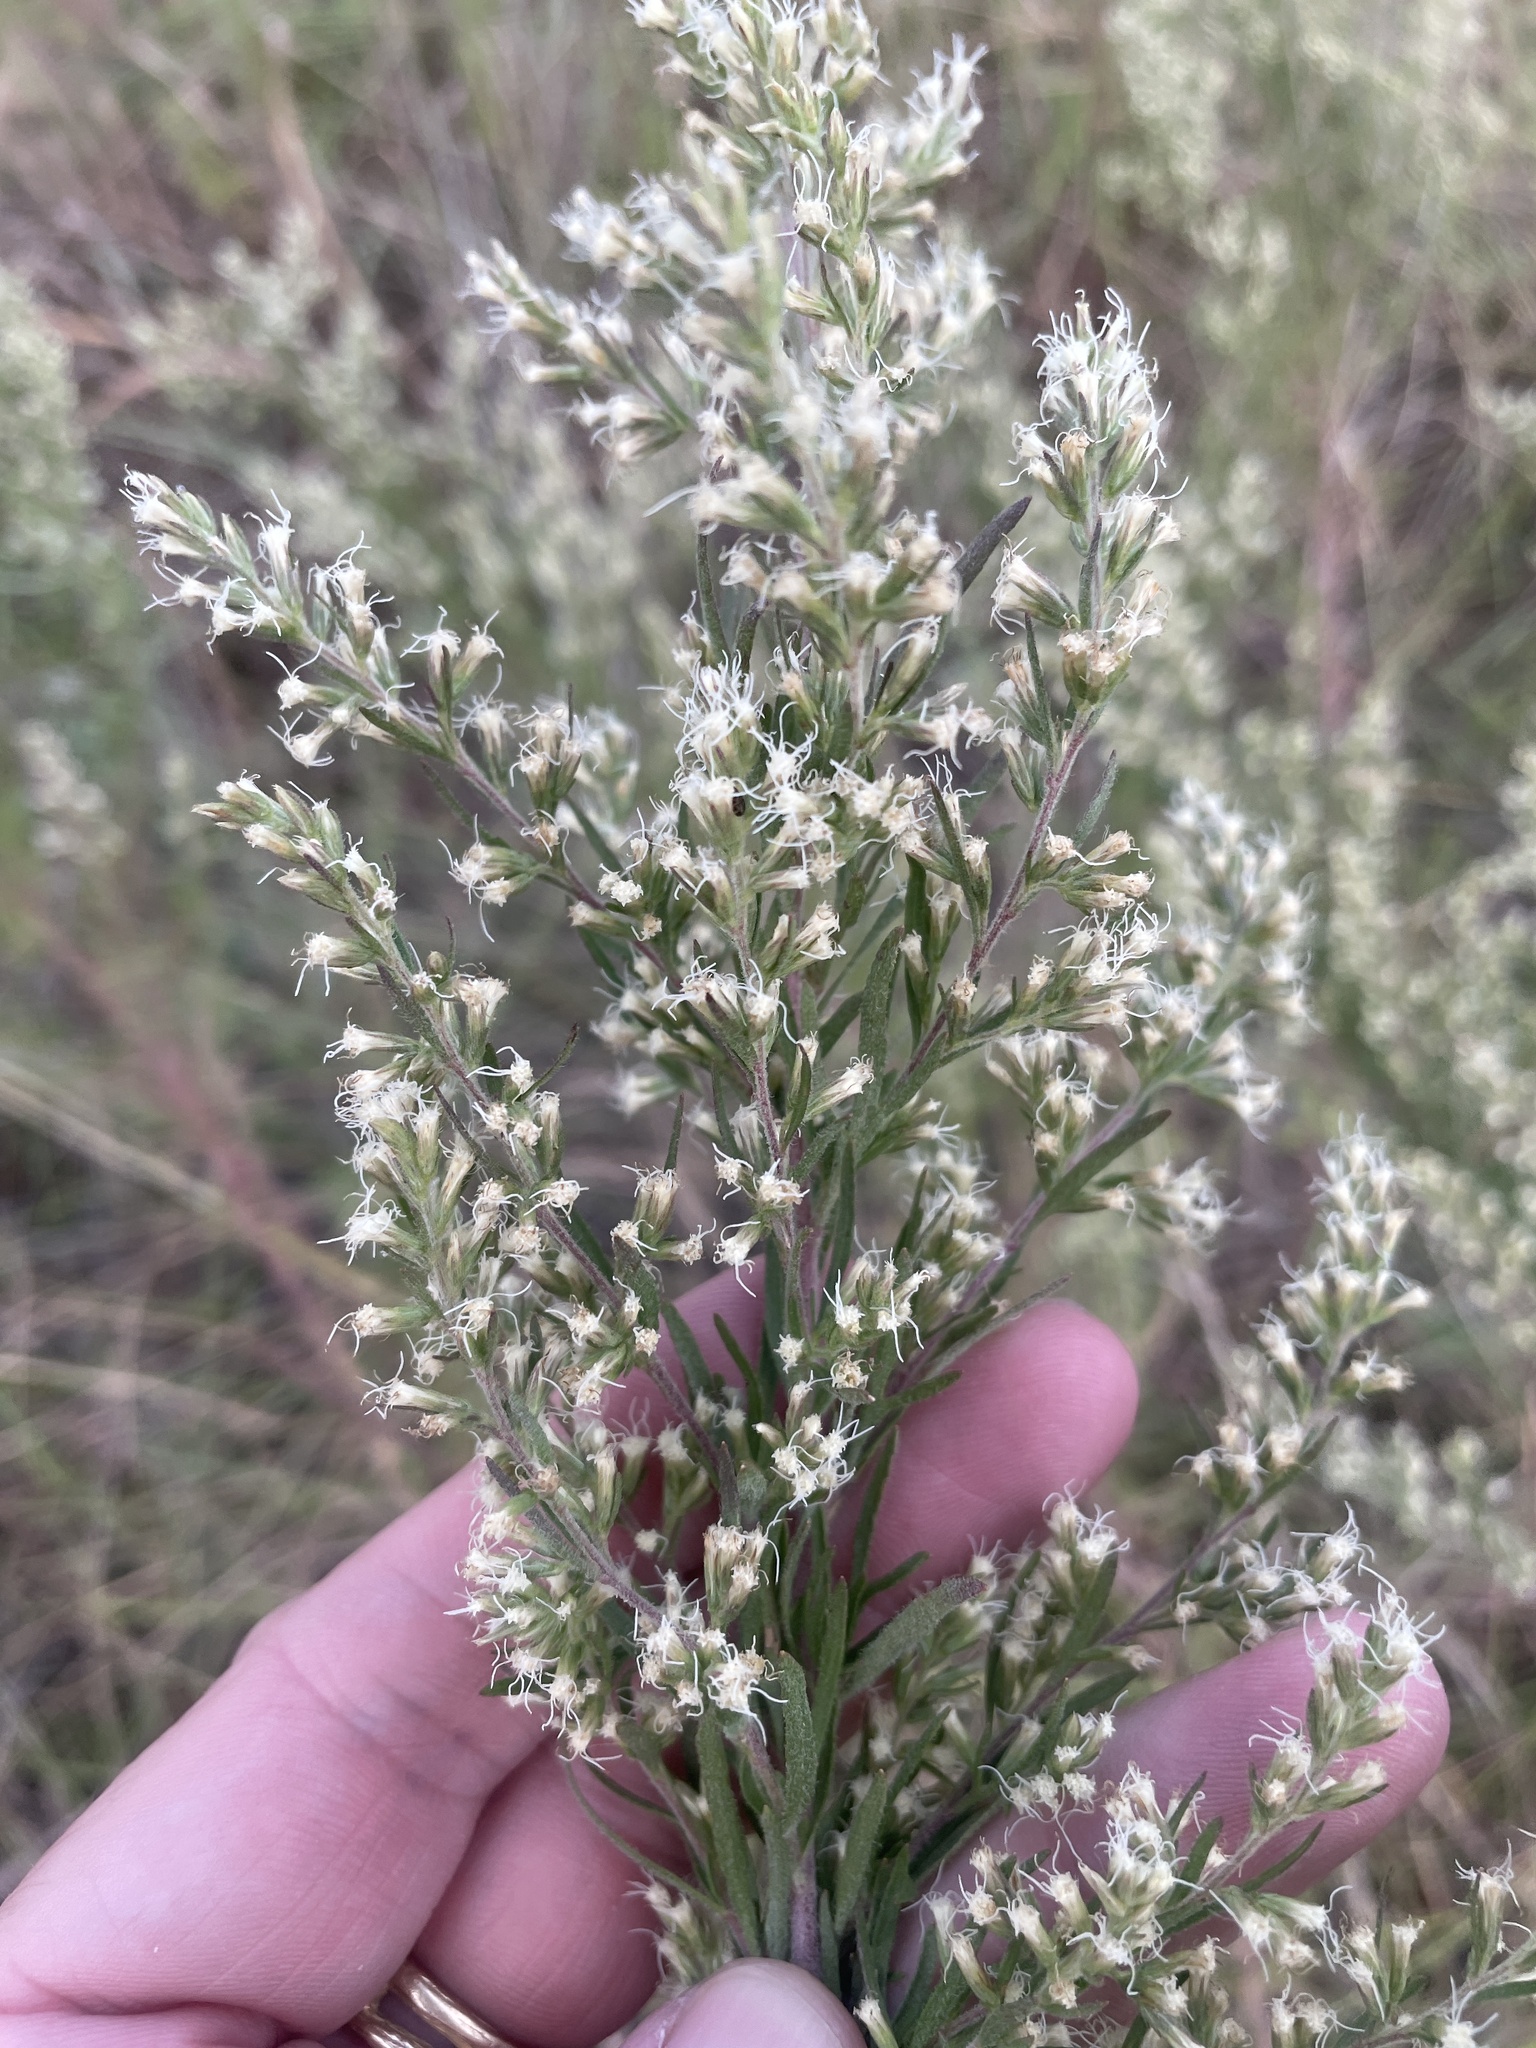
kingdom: Plantae
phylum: Tracheophyta
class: Magnoliopsida
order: Asterales
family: Asteraceae
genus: Eupatorium
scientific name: Eupatorium compositifolium
